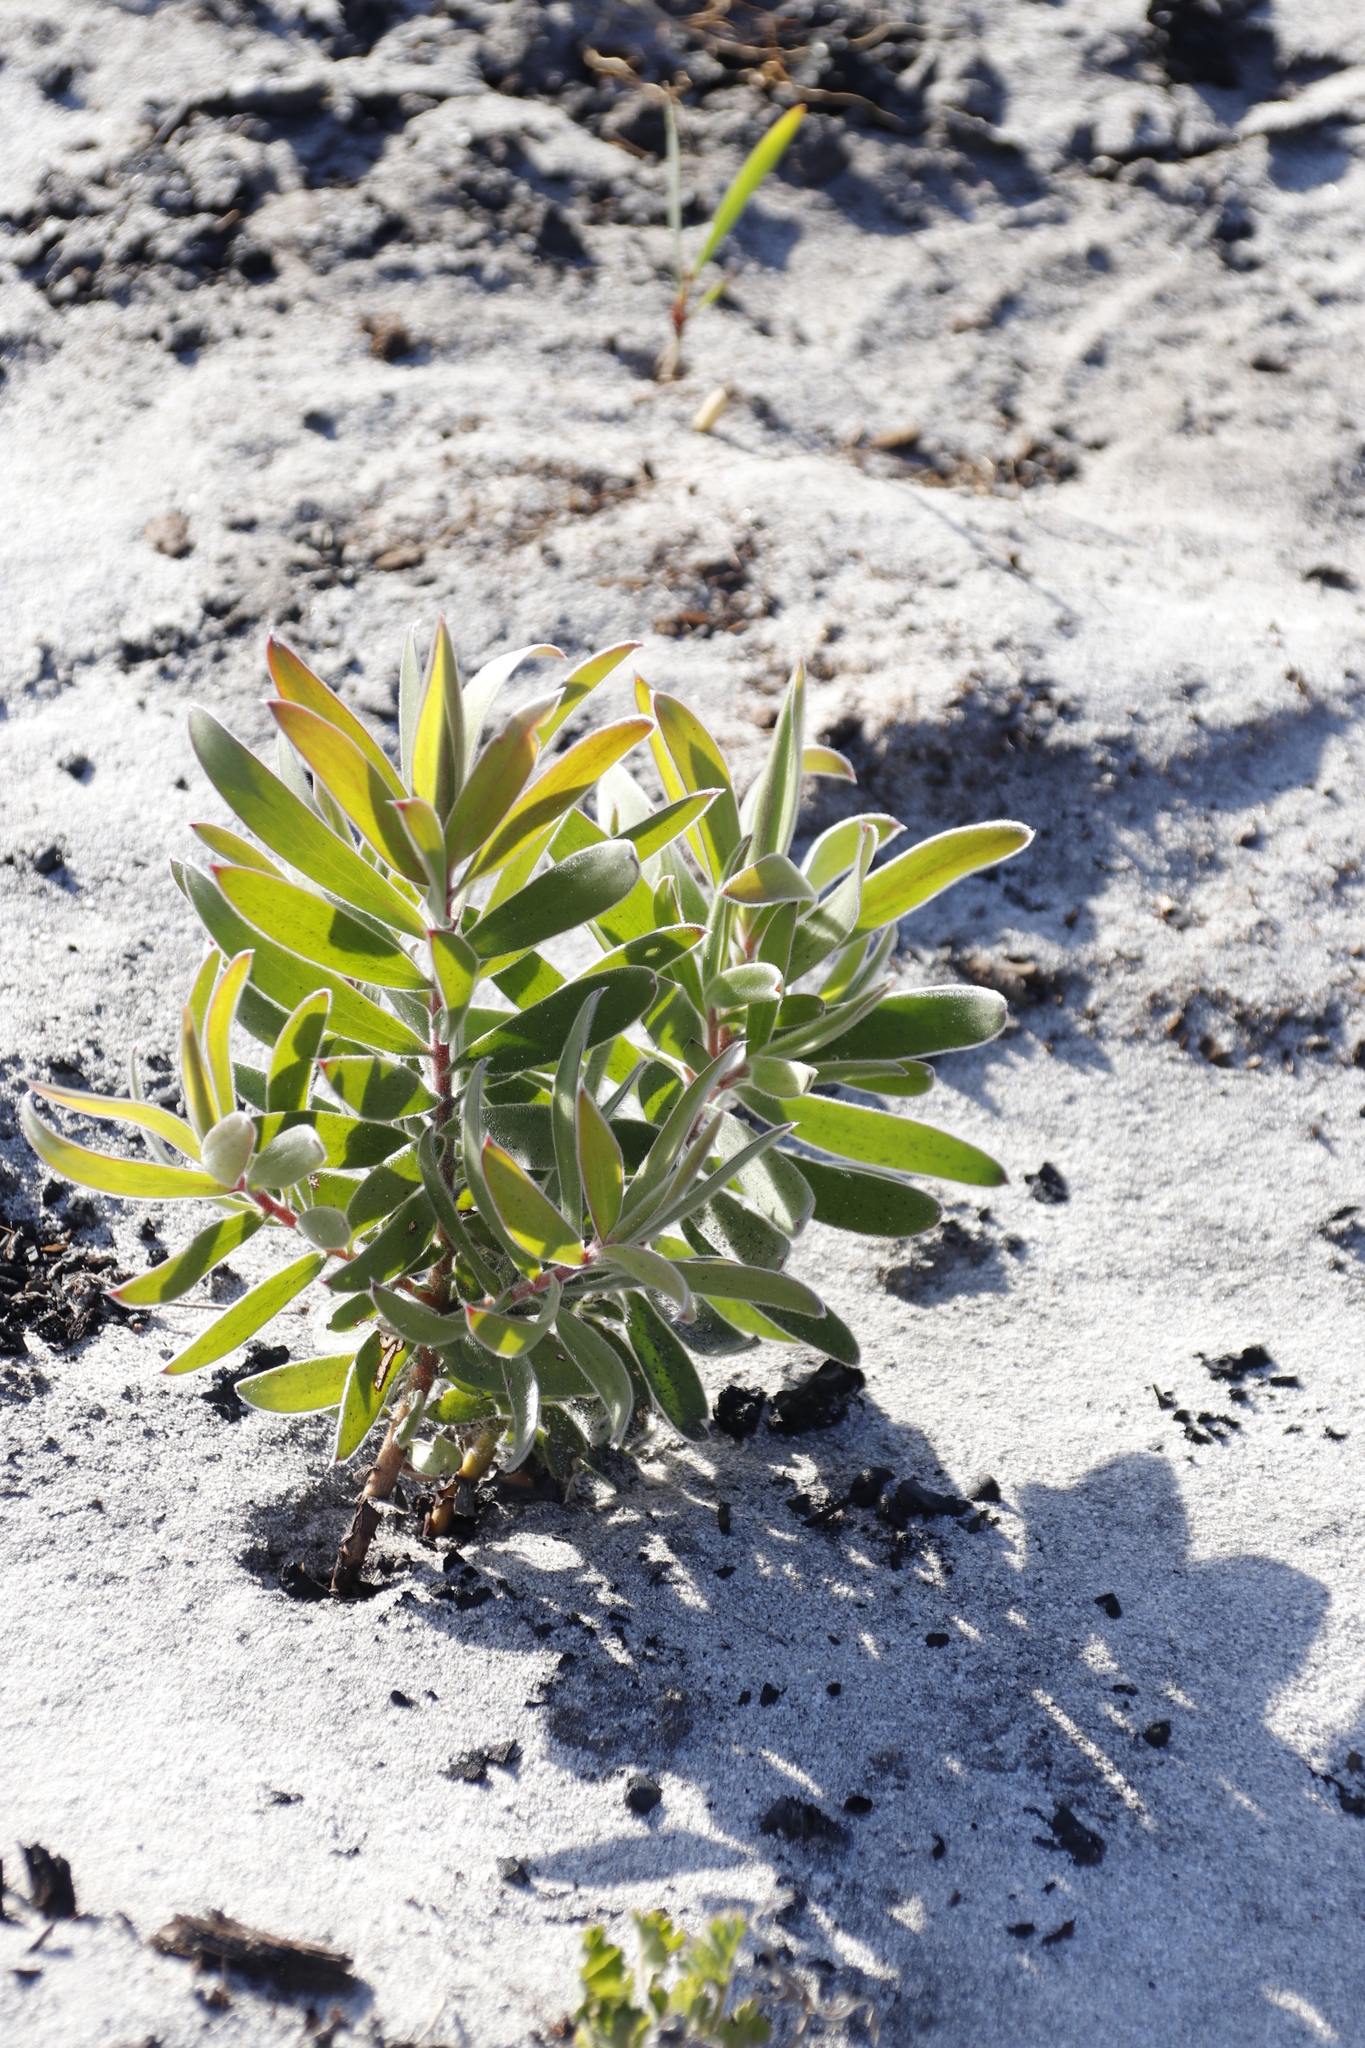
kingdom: Plantae
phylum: Tracheophyta
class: Magnoliopsida
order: Proteales
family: Proteaceae
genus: Leucadendron
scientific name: Leucadendron laureolum
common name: Golden sunshinebush
